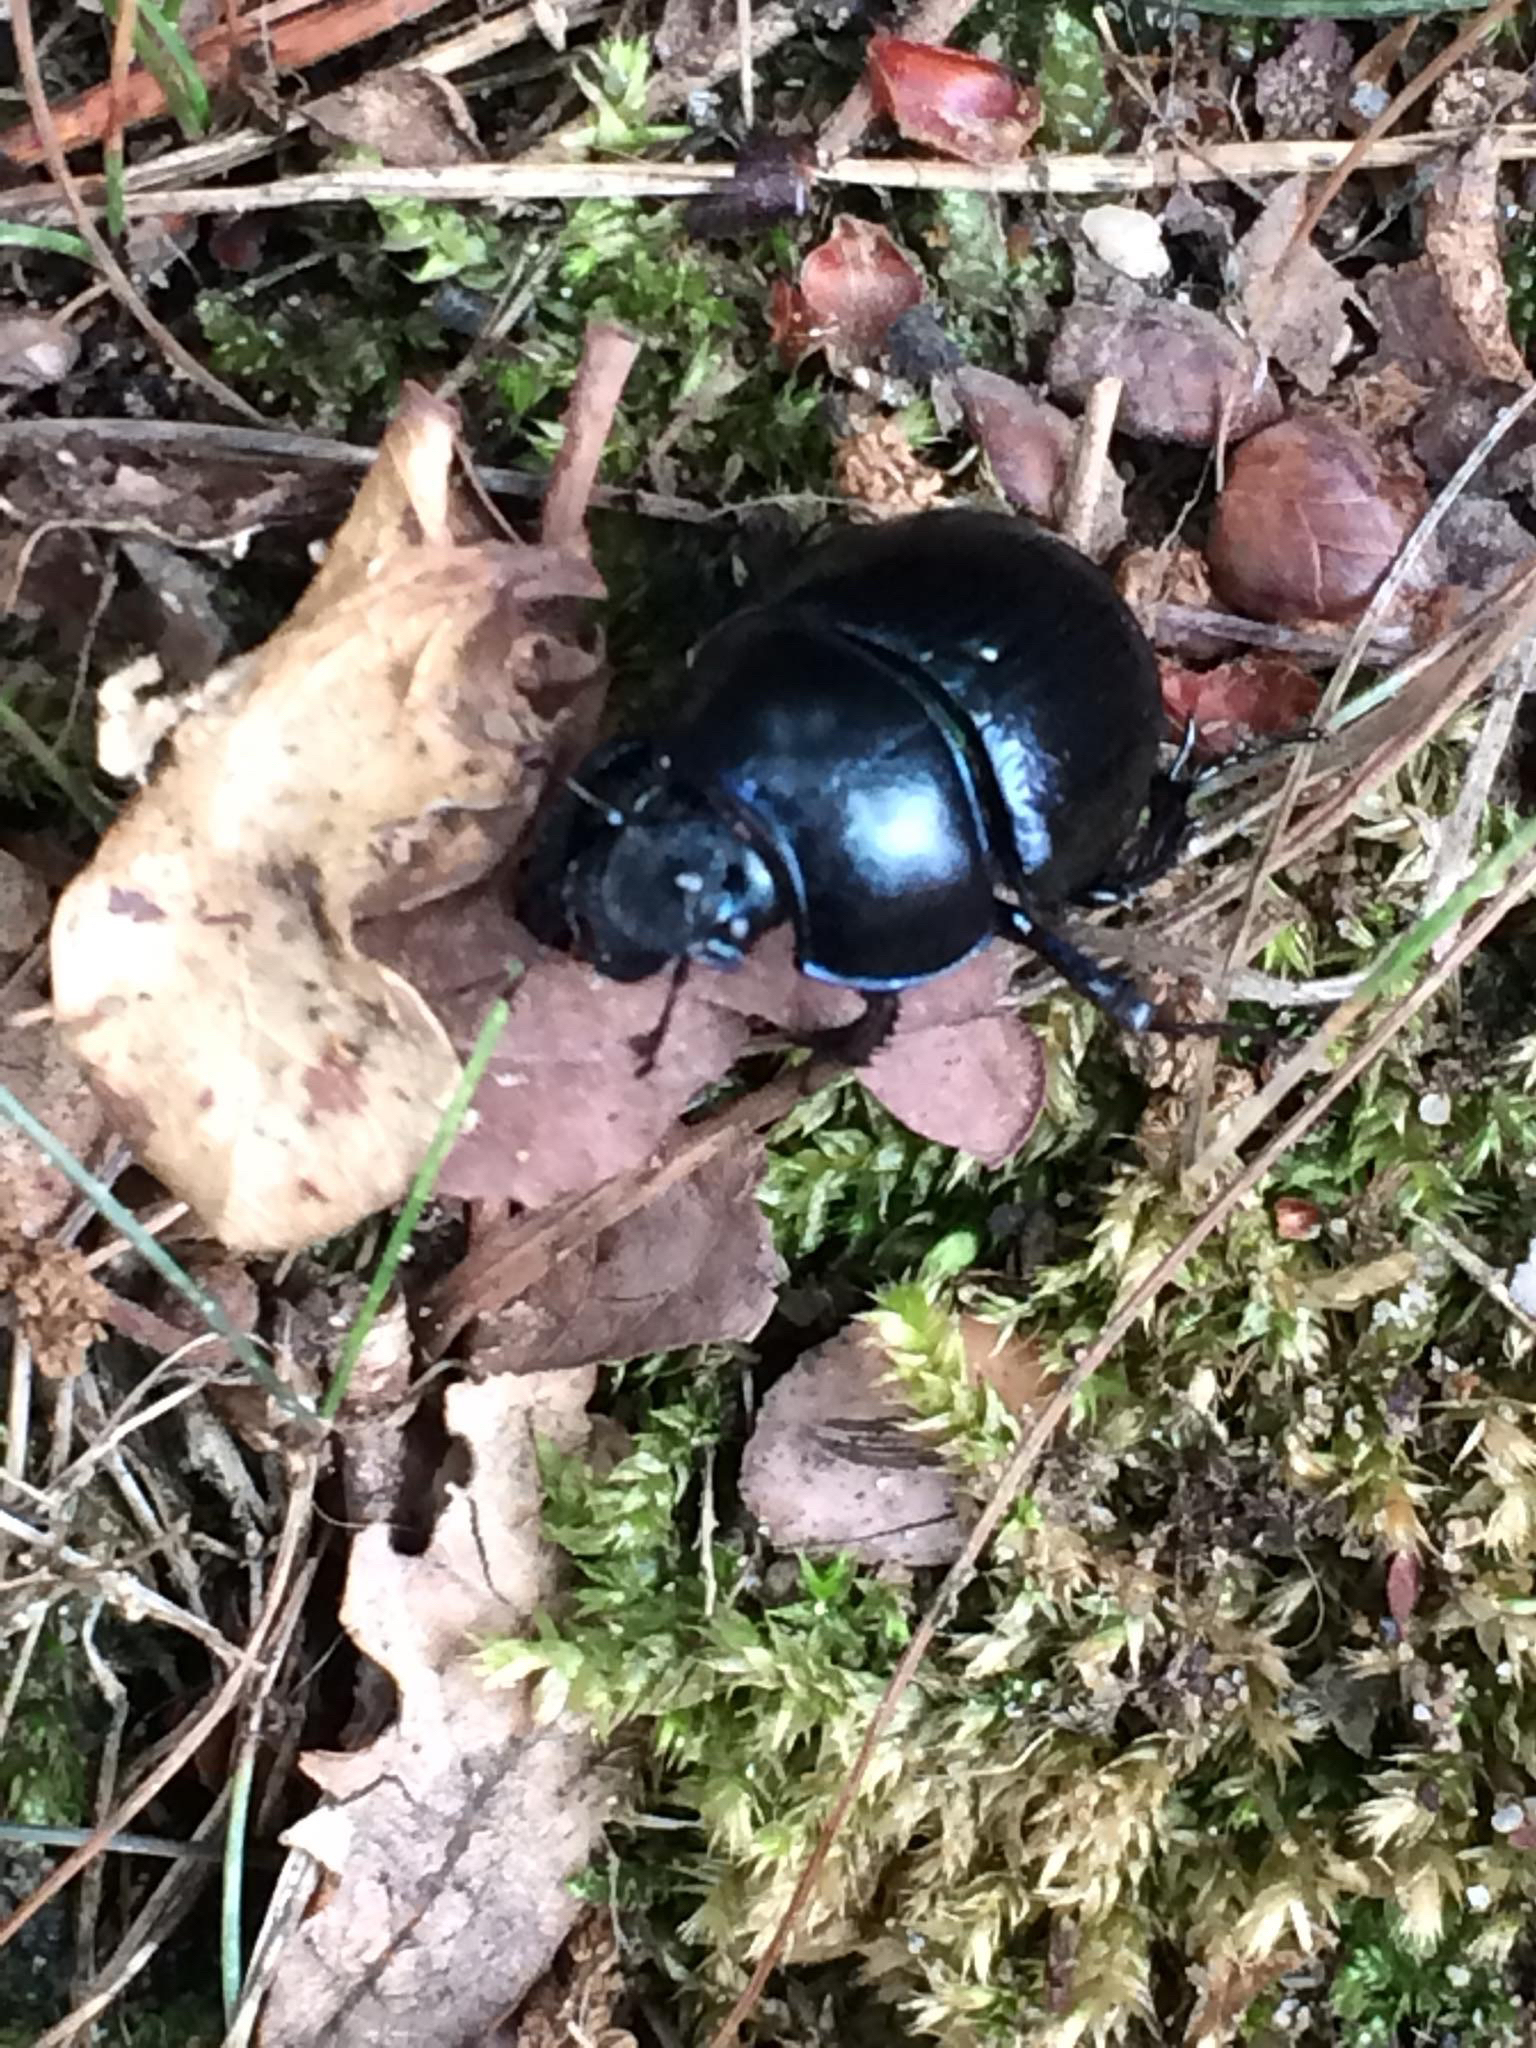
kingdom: Animalia
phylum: Arthropoda
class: Insecta
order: Coleoptera
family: Geotrupidae
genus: Anoplotrupes
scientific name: Anoplotrupes stercorosus
